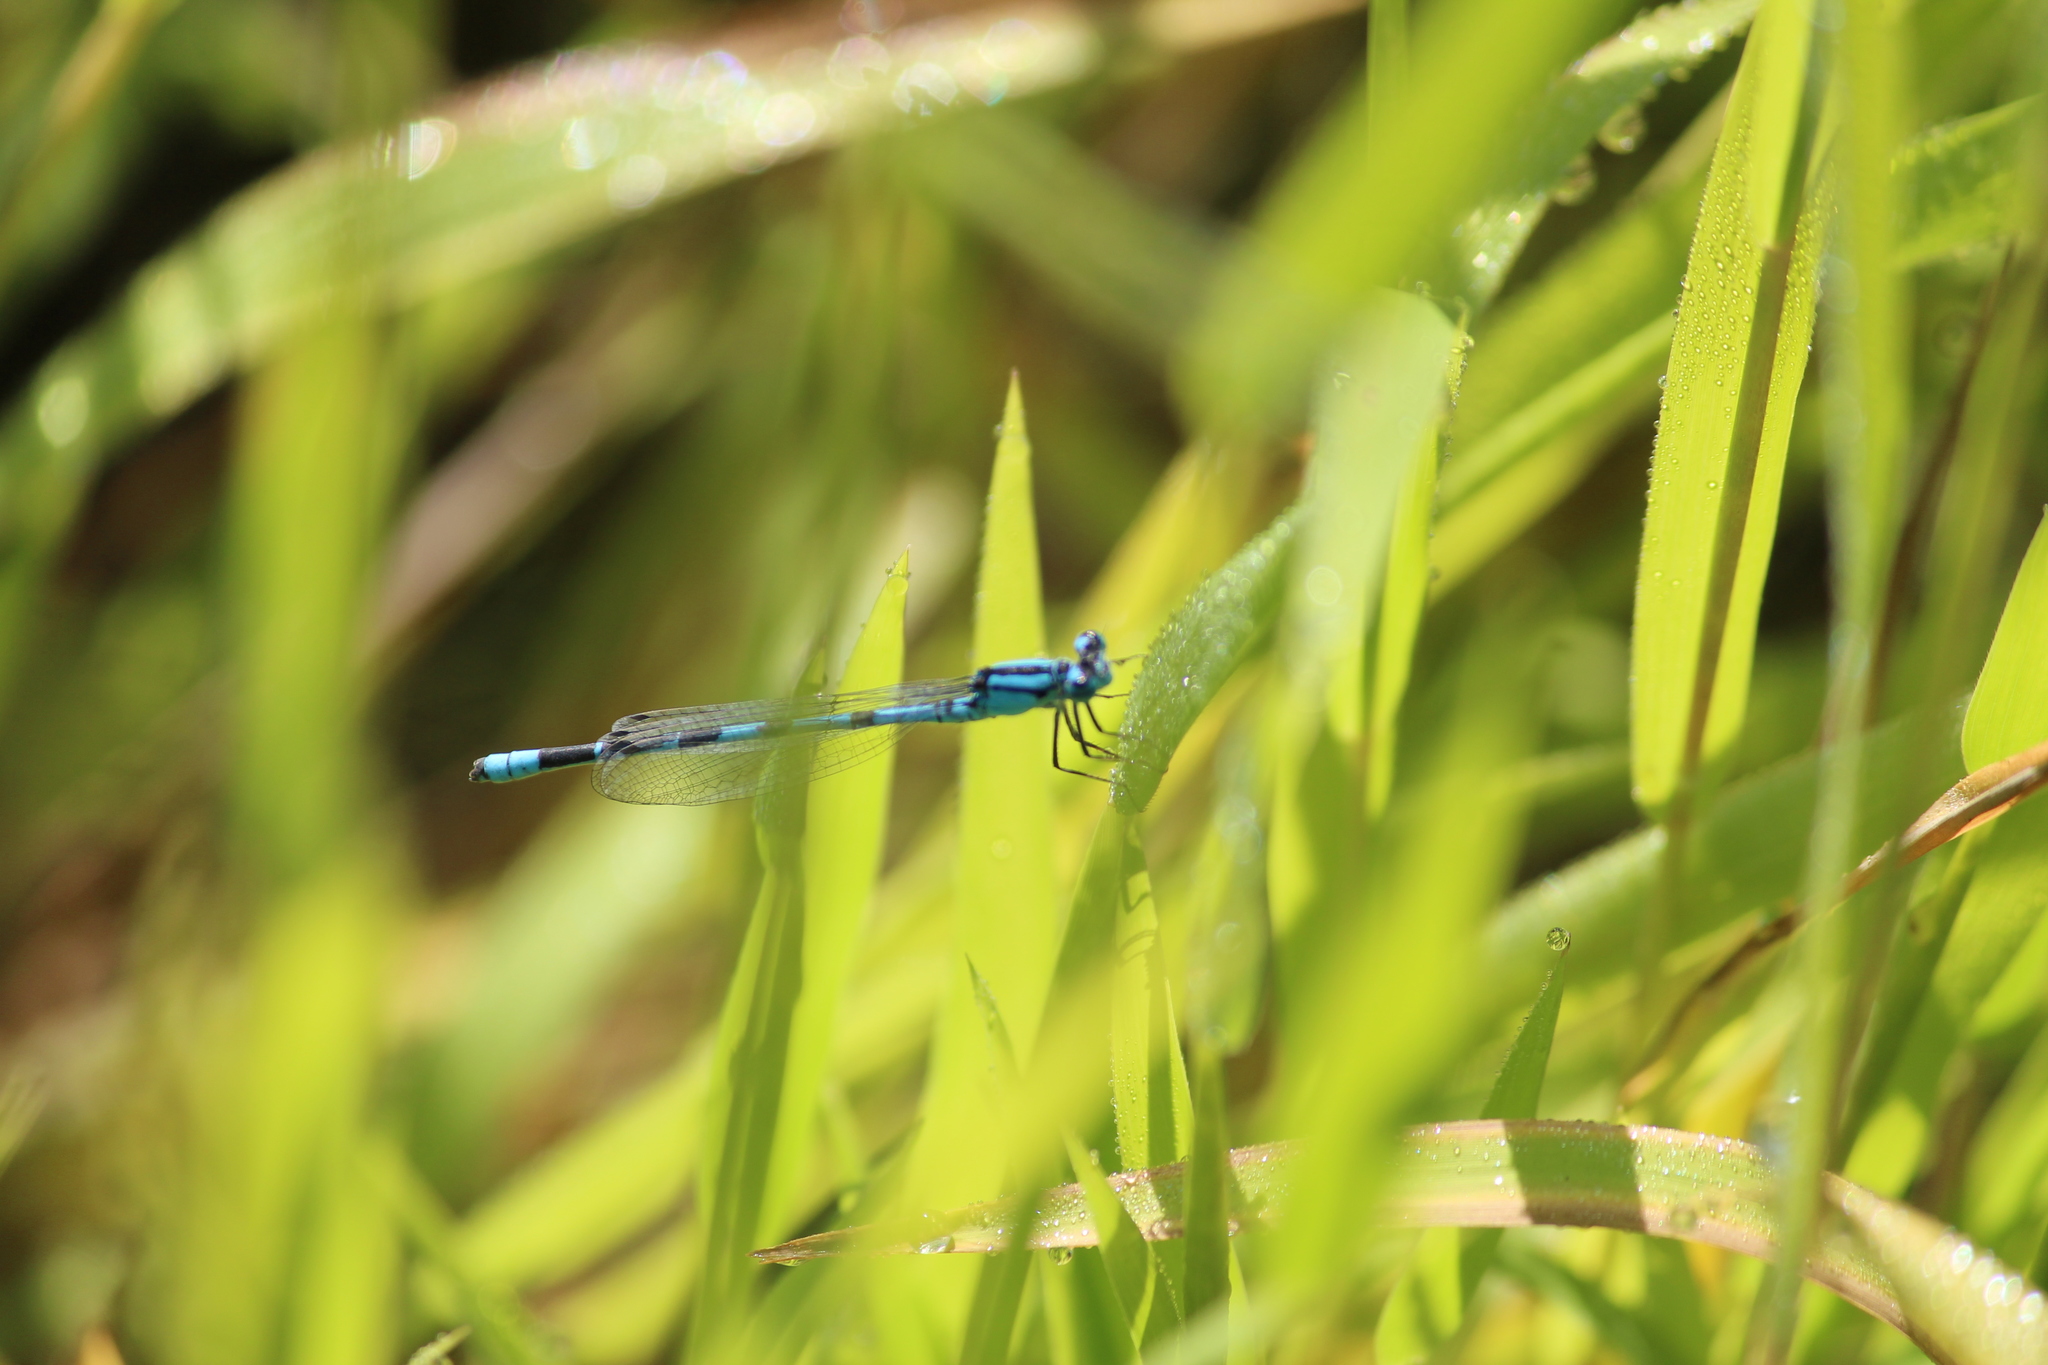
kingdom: Animalia
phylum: Arthropoda
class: Insecta
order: Odonata
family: Coenagrionidae
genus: Enallagma
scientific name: Enallagma cyathigerum
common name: Common blue damselfly
